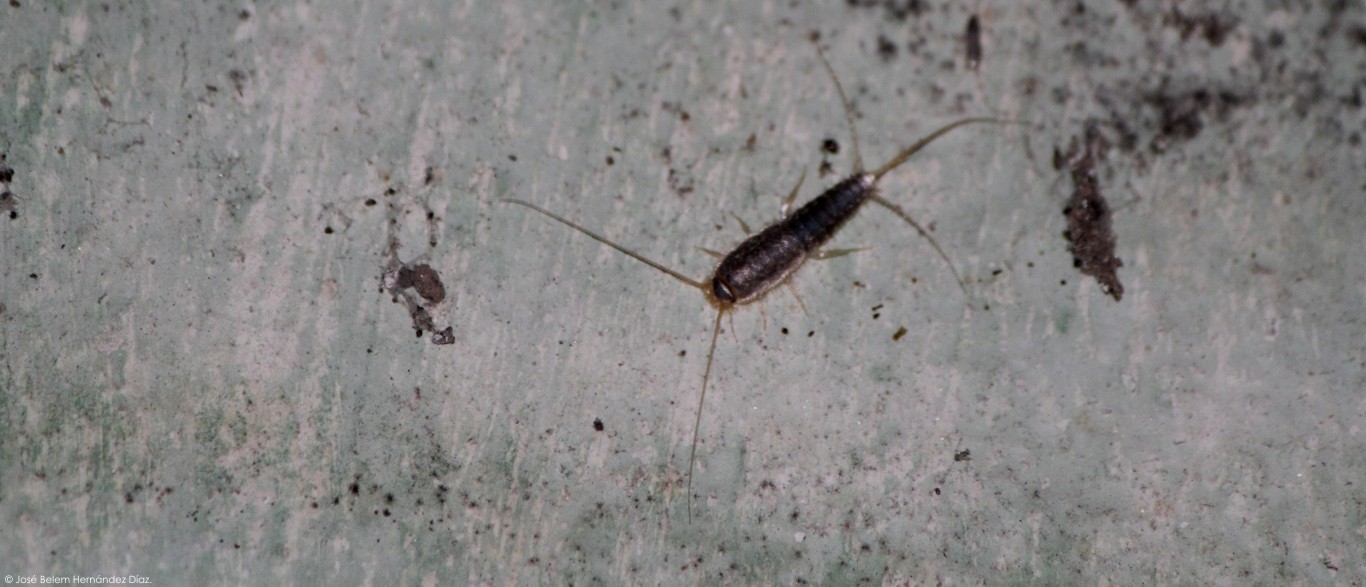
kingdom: Animalia
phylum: Arthropoda
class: Insecta
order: Zygentoma
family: Lepismatidae
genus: Ctenolepisma
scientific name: Ctenolepisma longicaudatum
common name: Silverfish
